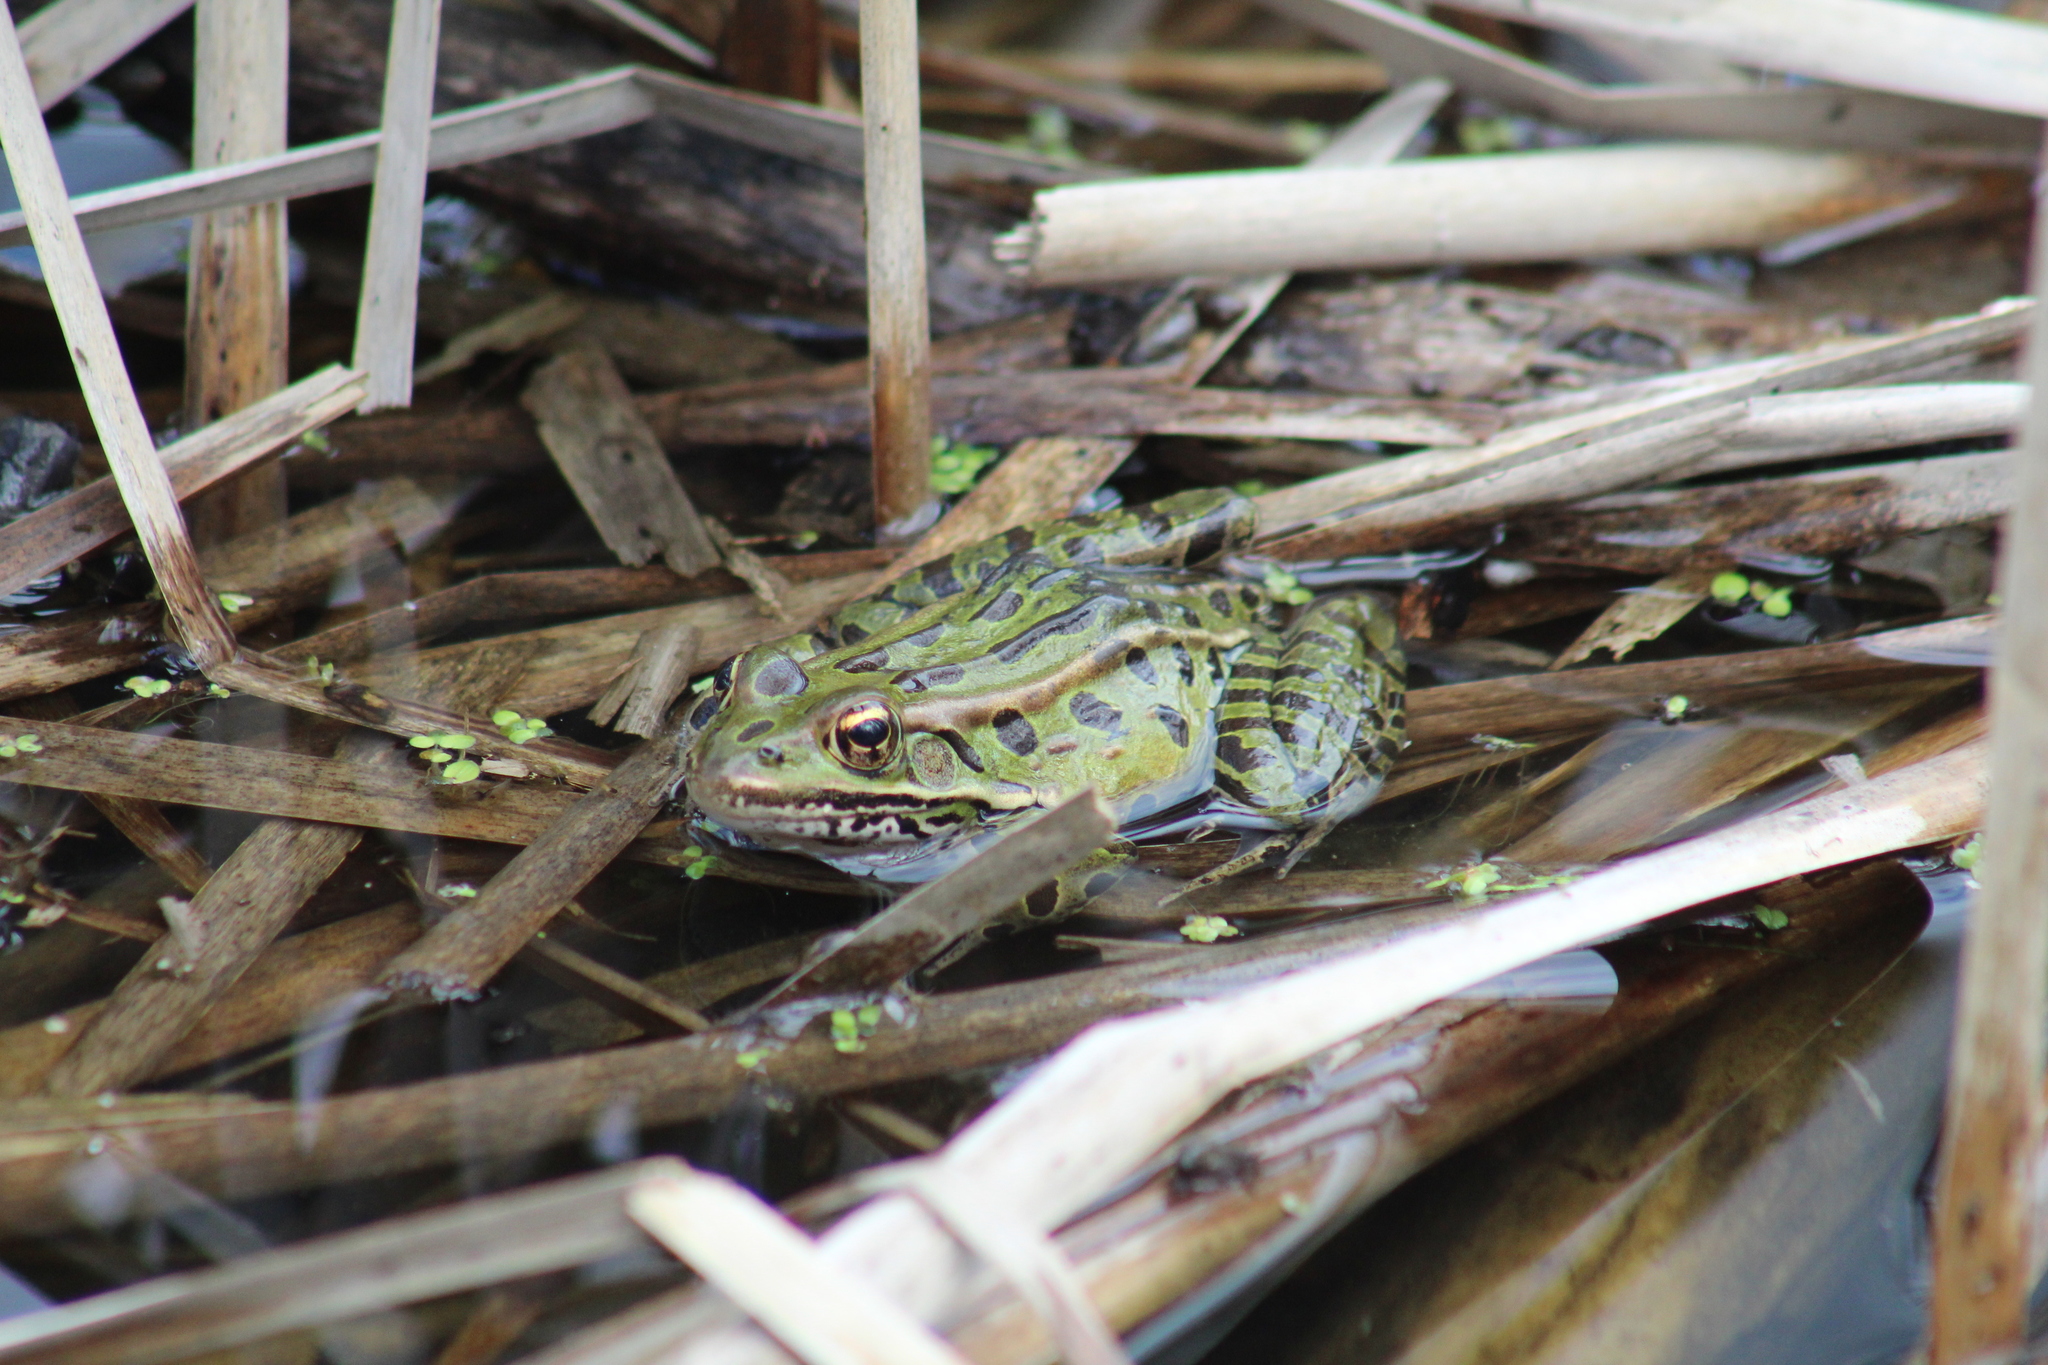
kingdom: Animalia
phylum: Chordata
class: Amphibia
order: Anura
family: Ranidae
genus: Lithobates
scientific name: Lithobates pipiens
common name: Northern leopard frog
